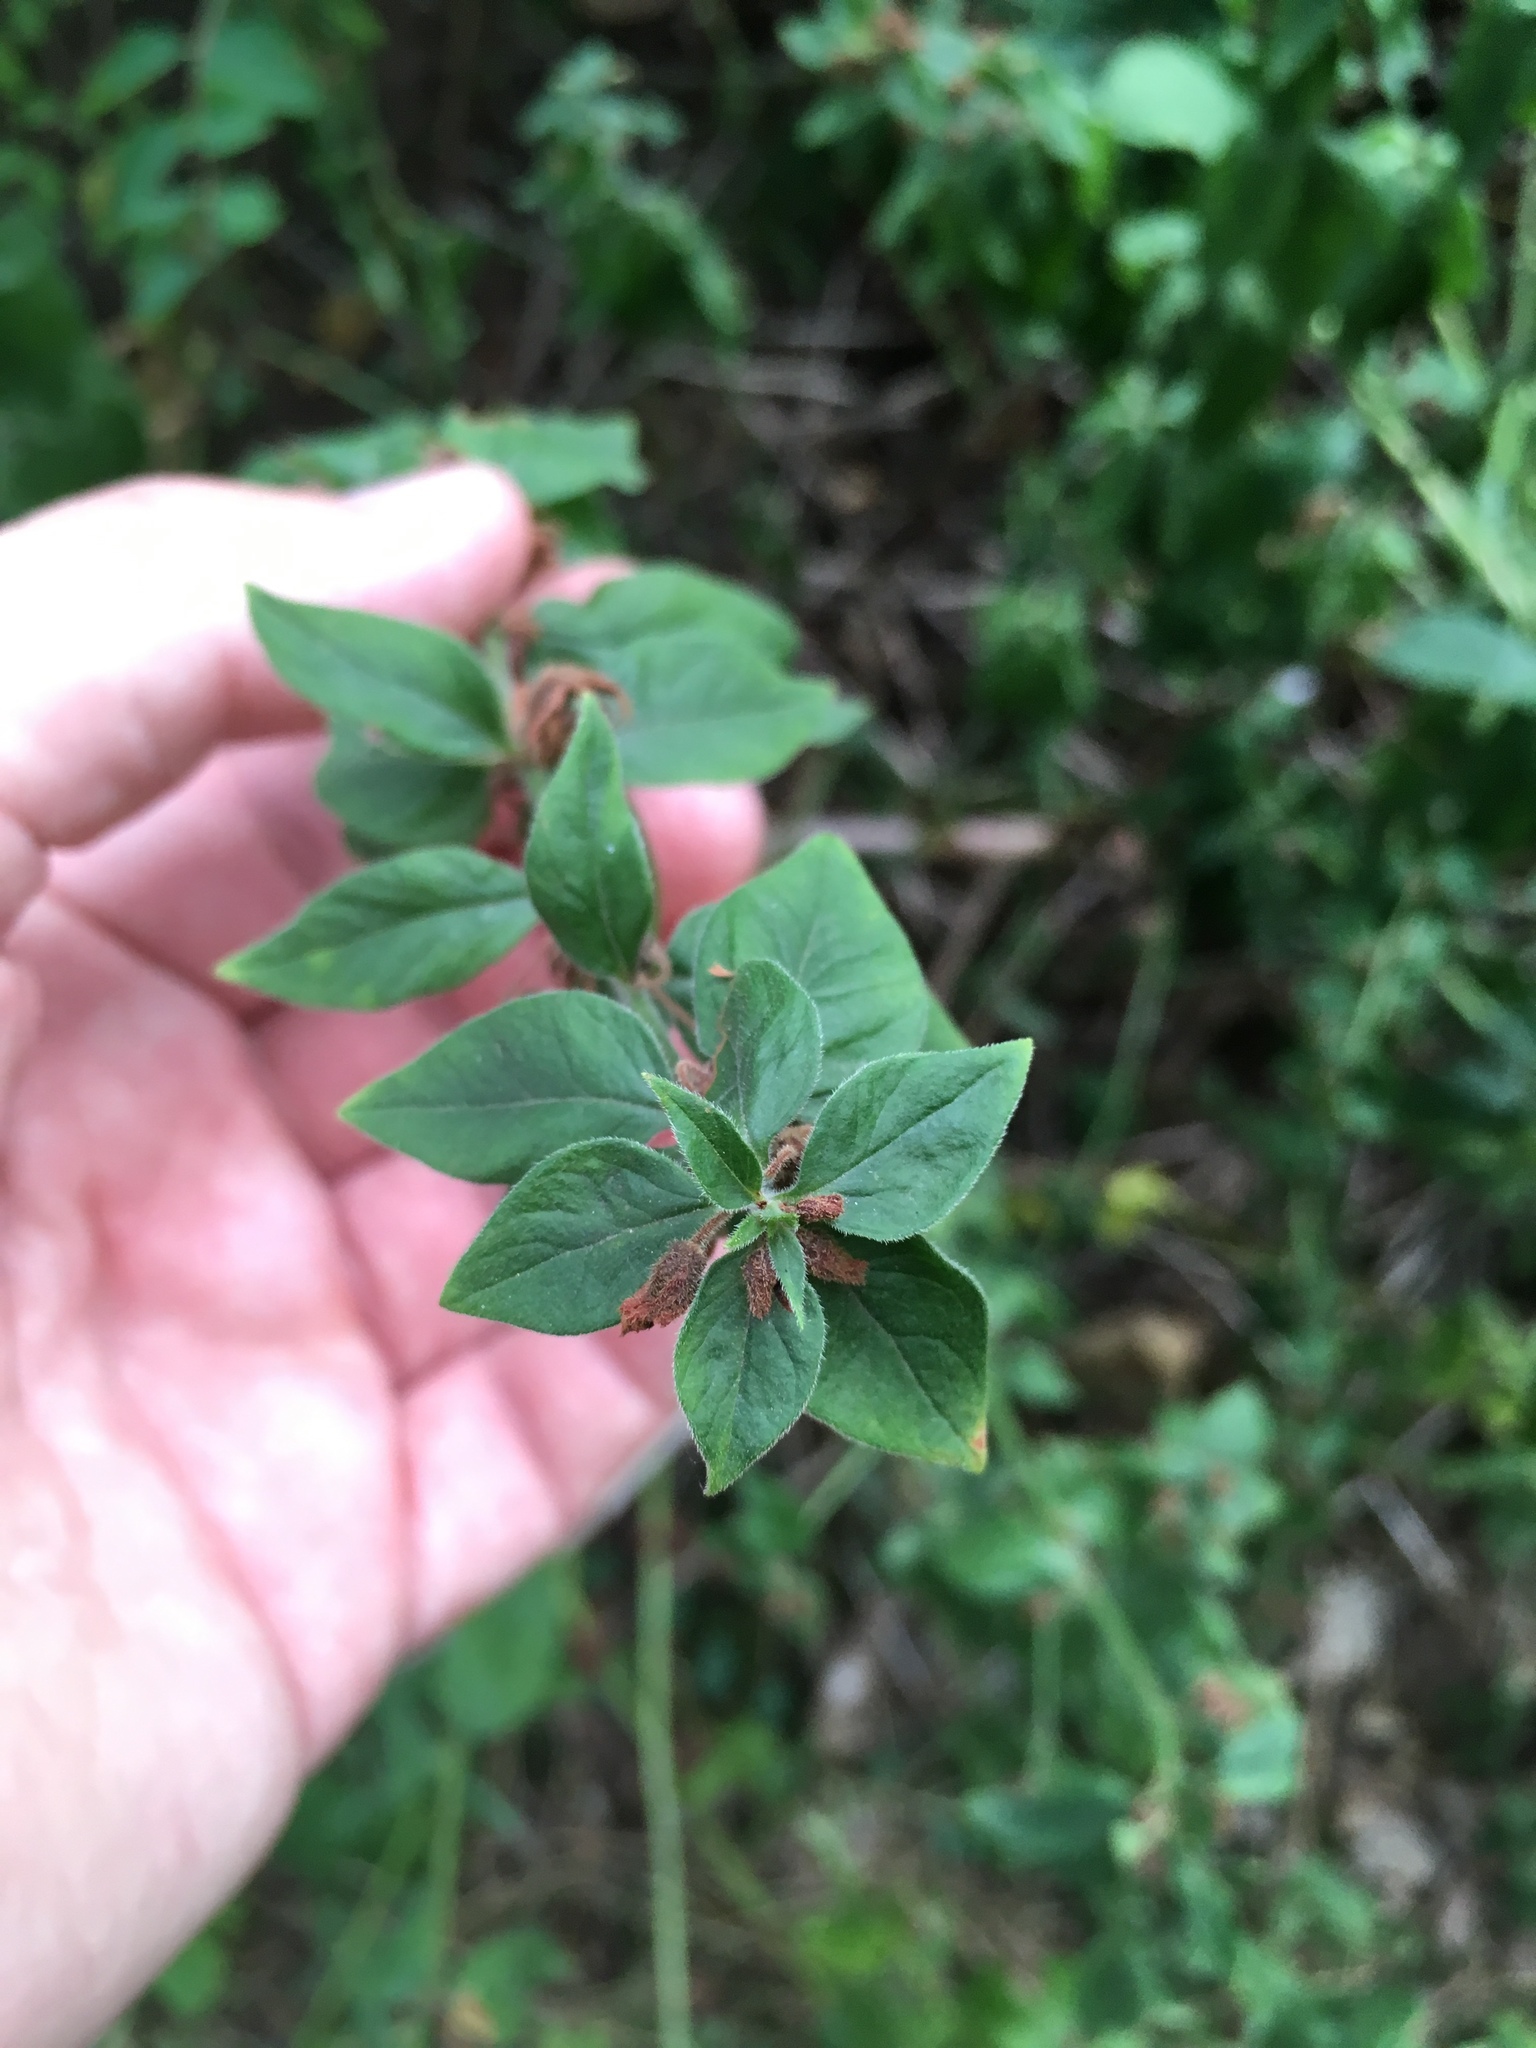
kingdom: Plantae
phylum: Tracheophyta
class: Magnoliopsida
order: Lamiales
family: Lamiaceae
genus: Origanum
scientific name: Origanum vulgare
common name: Wild marjoram
